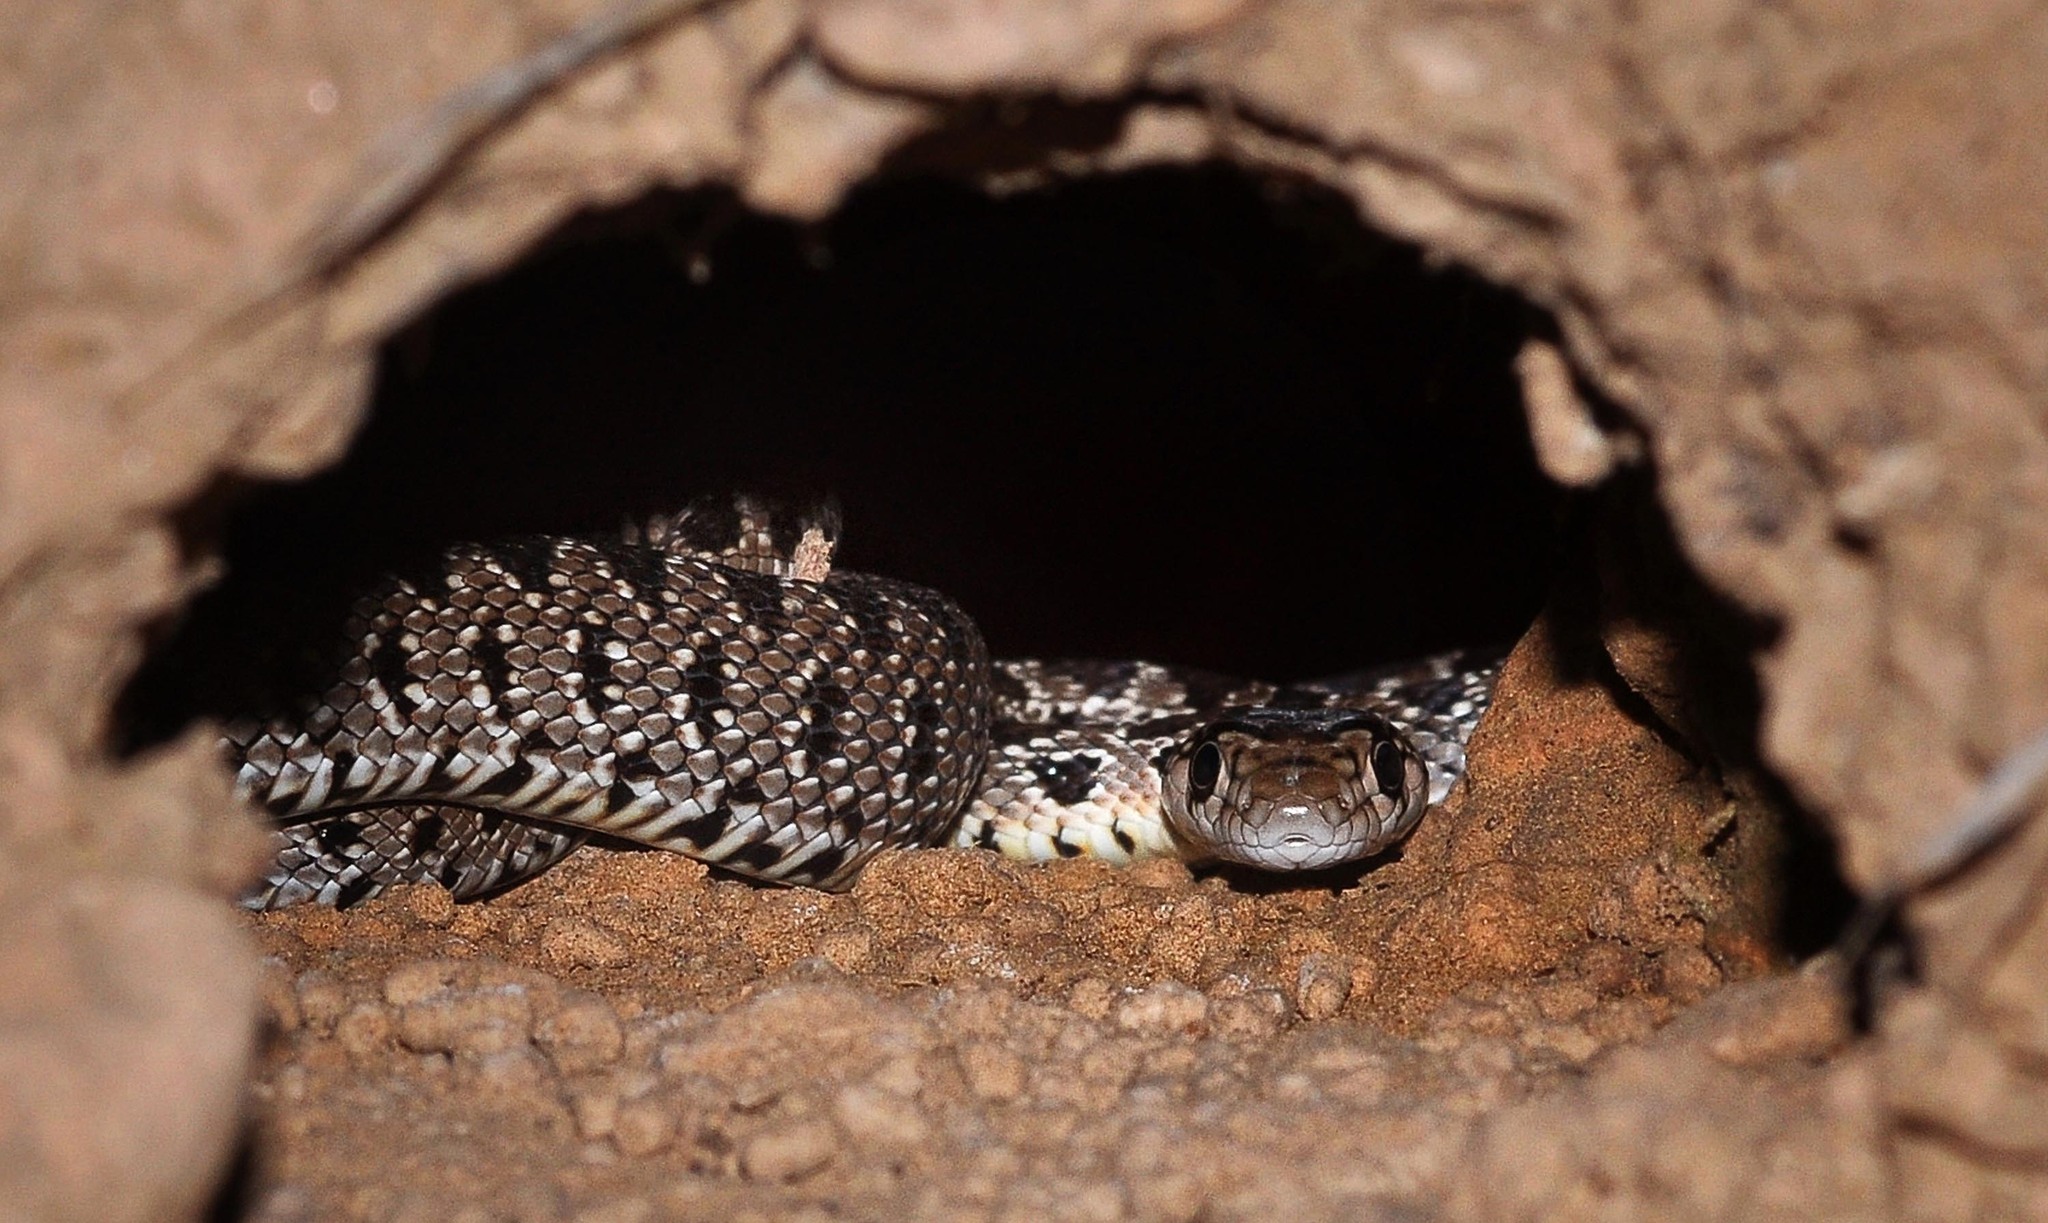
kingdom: Animalia
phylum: Chordata
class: Squamata
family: Colubridae
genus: Hemorrhois
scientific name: Hemorrhois hippocrepis
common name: Horseshoe whip snake
